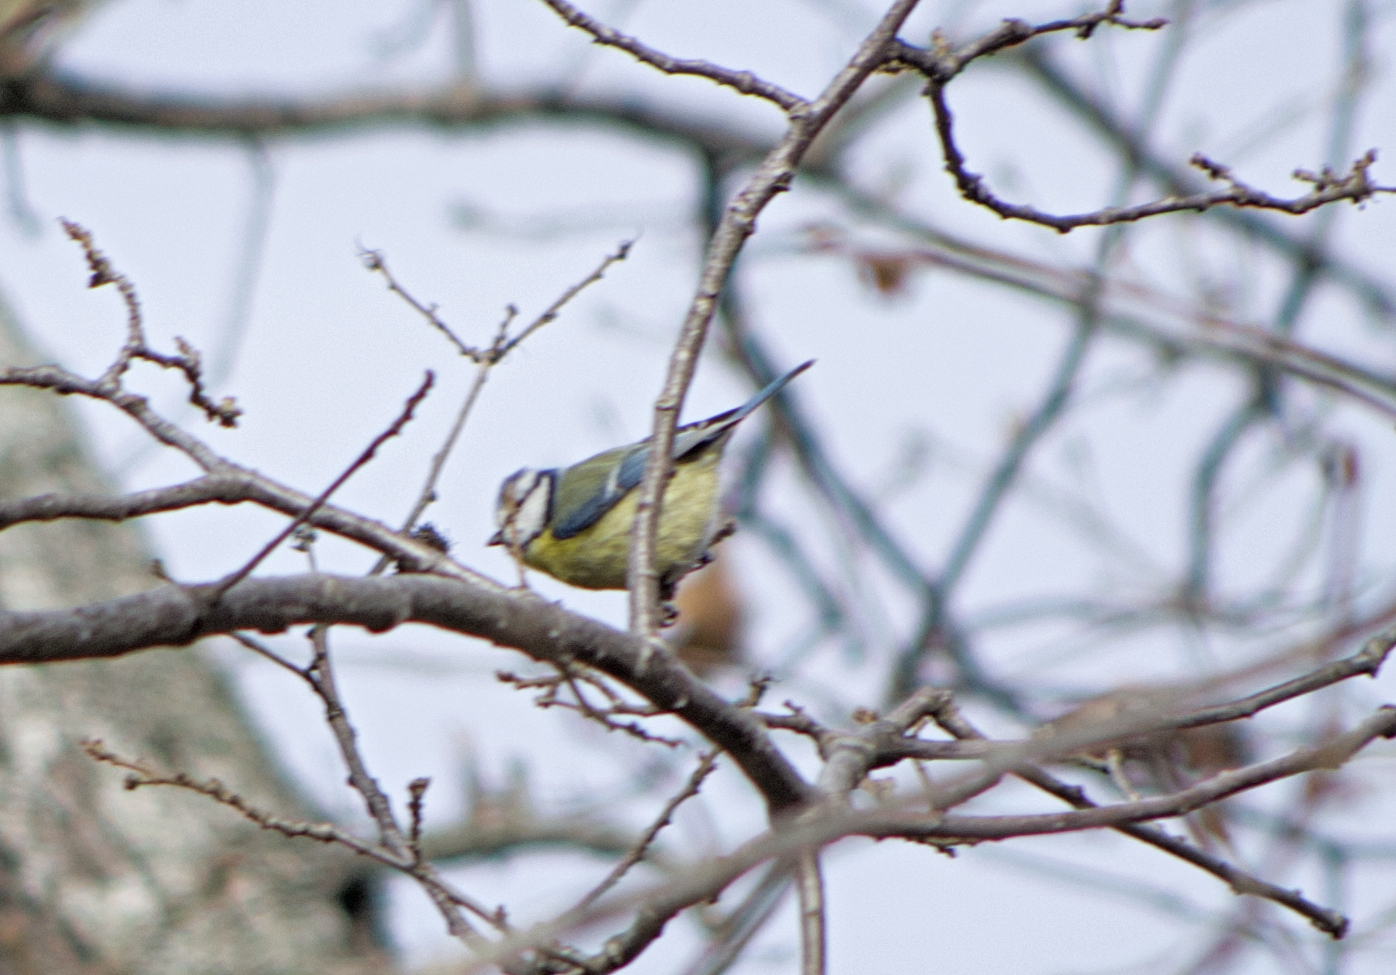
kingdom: Animalia
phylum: Chordata
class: Aves
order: Passeriformes
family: Paridae
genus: Cyanistes
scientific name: Cyanistes caeruleus
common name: Eurasian blue tit
